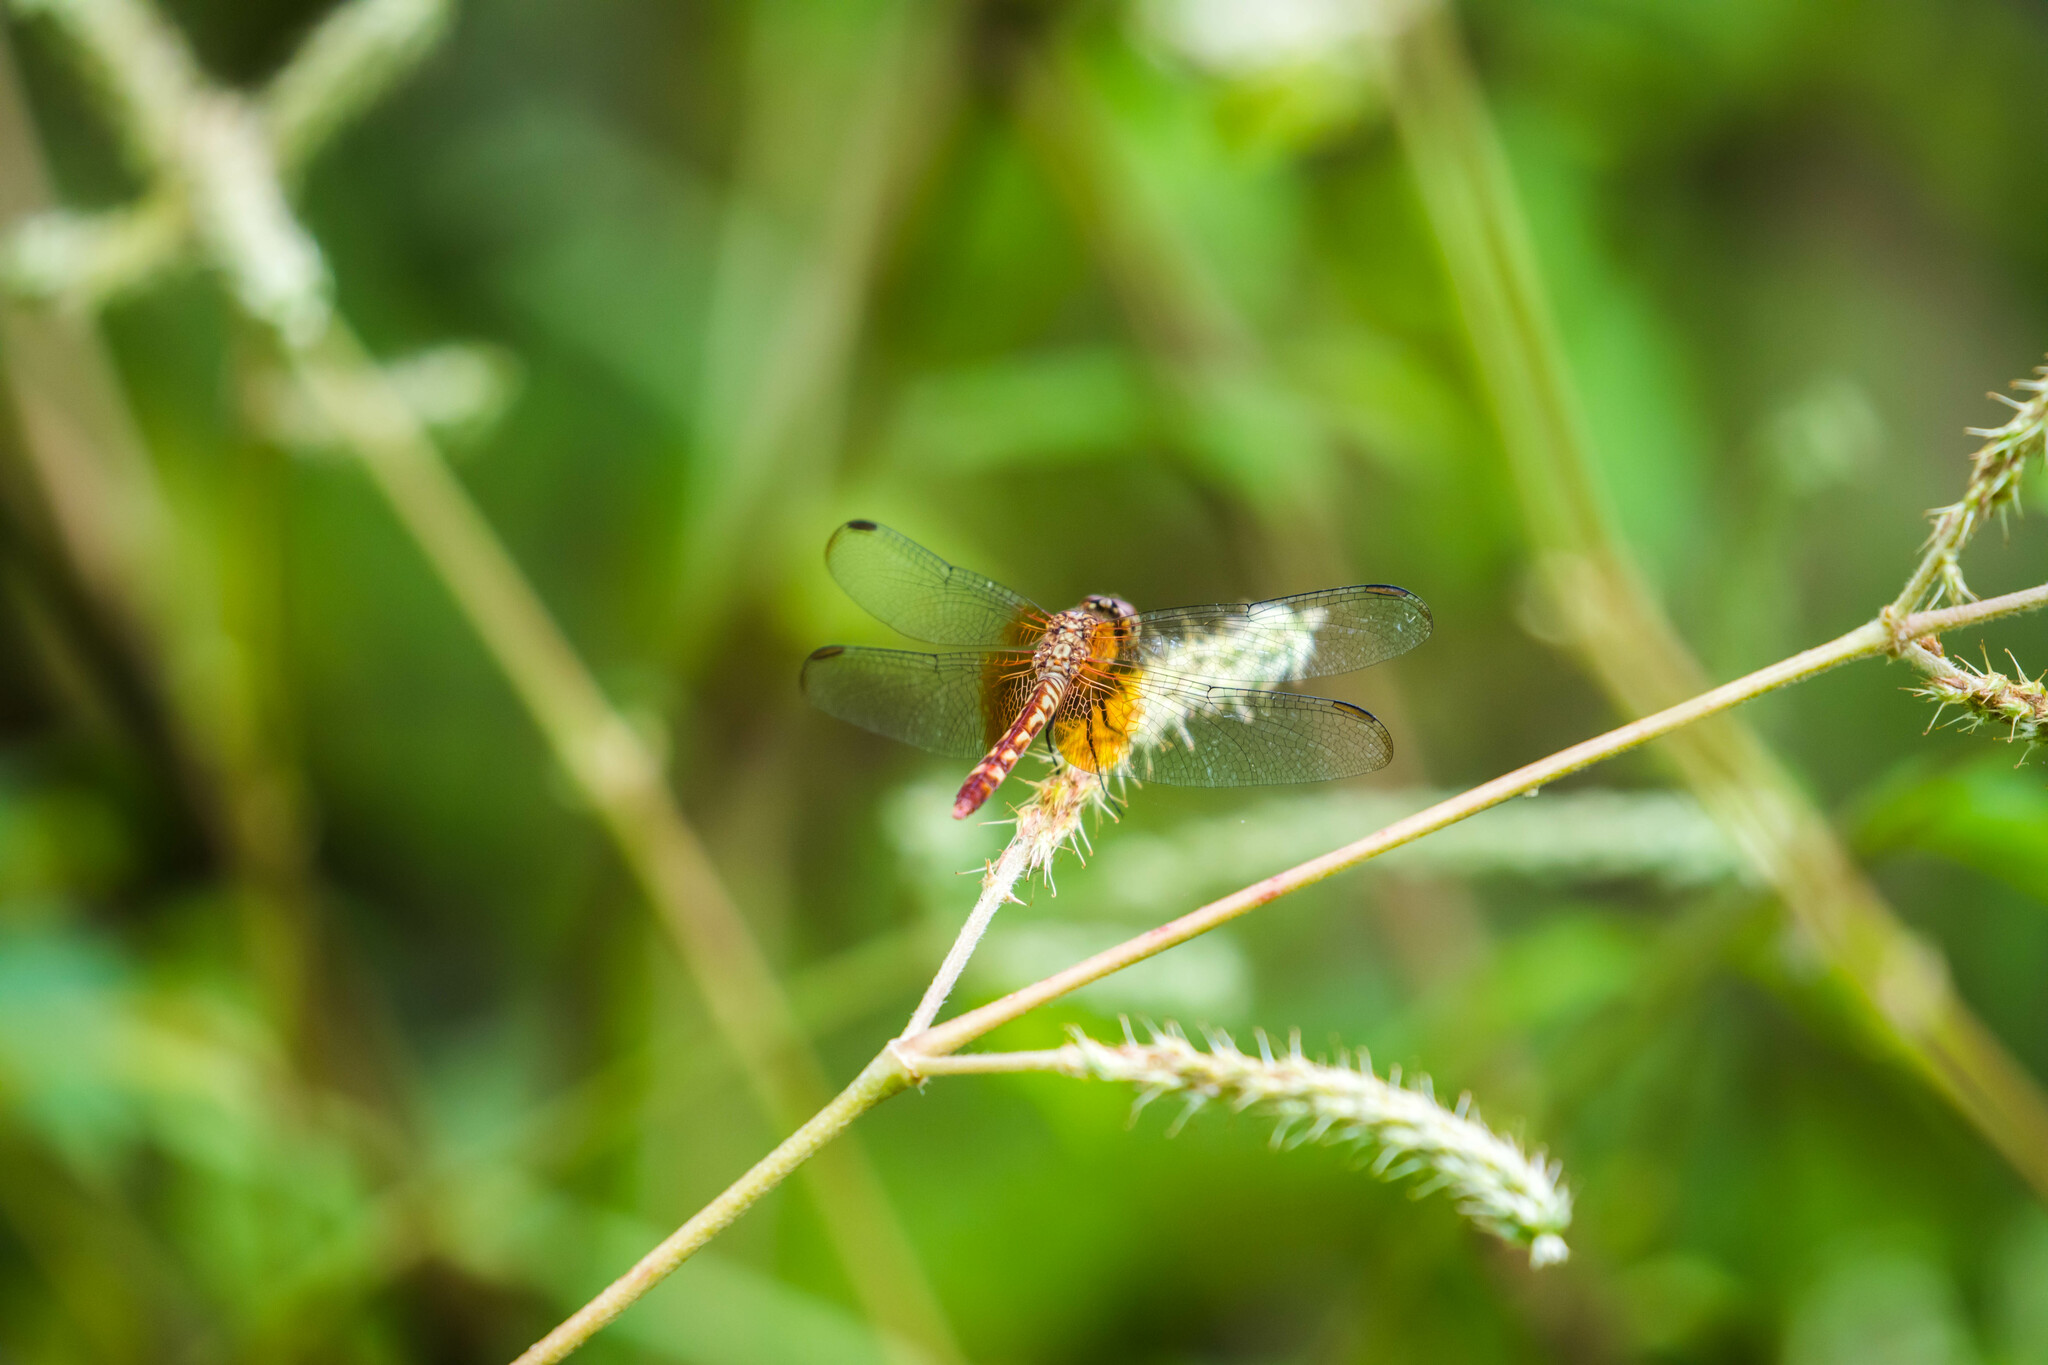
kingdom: Animalia
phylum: Arthropoda
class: Insecta
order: Odonata
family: Libellulidae
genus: Erythrodiplax
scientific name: Erythrodiplax fervida
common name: Red-mantled dragonlet
